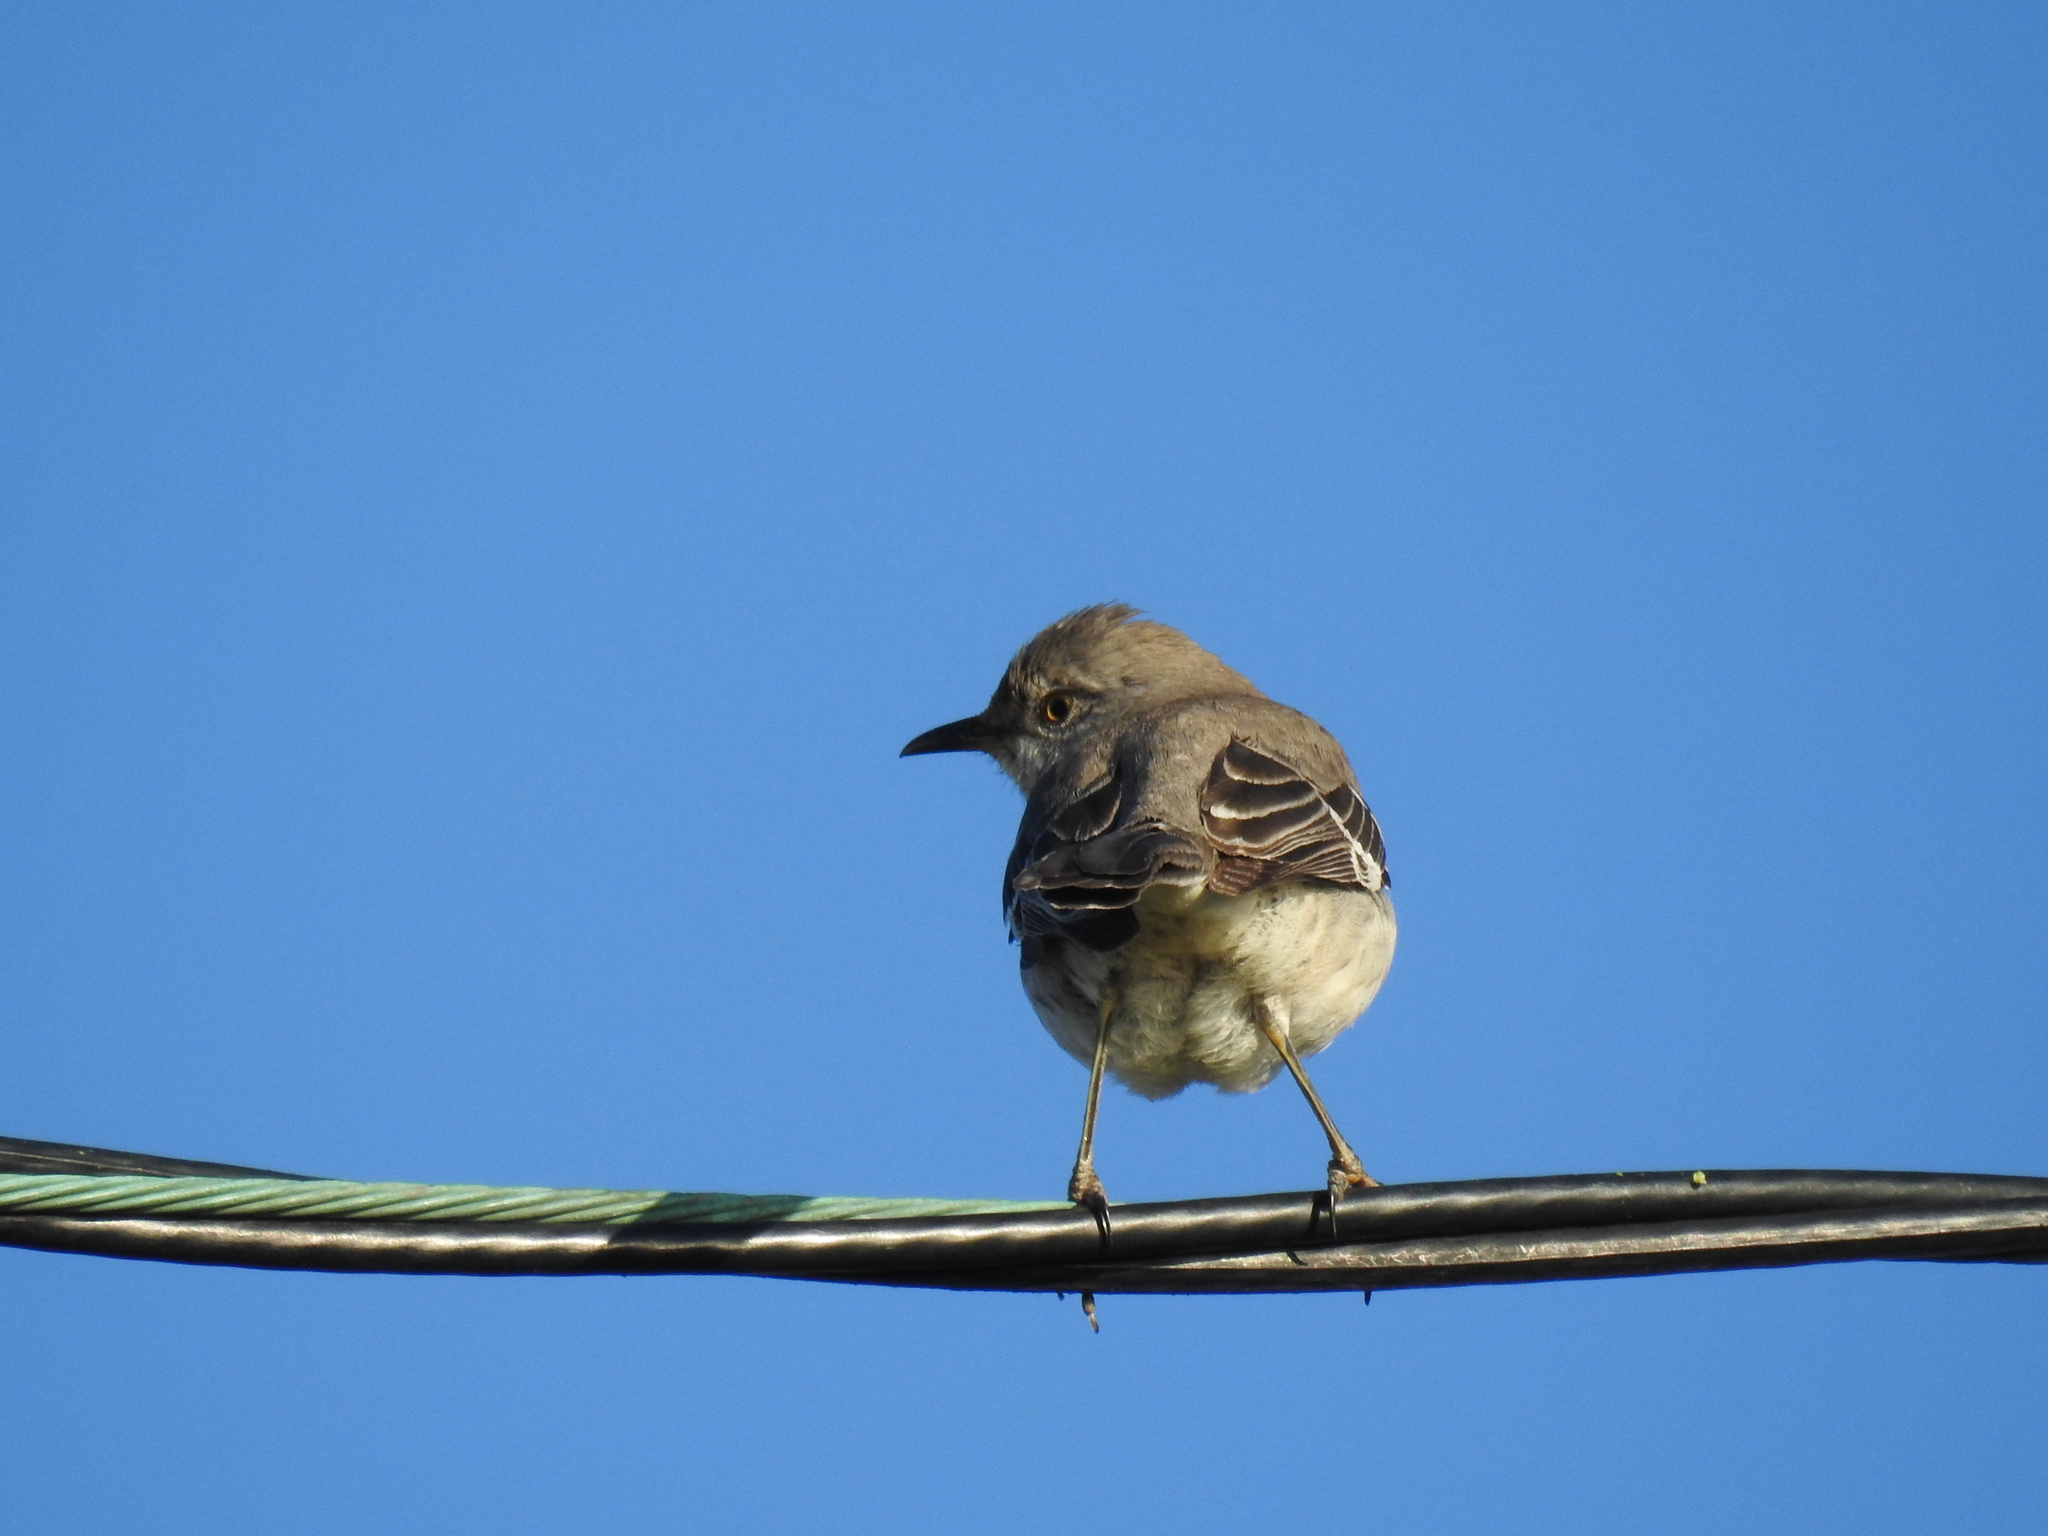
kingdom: Animalia
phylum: Chordata
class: Aves
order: Passeriformes
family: Mimidae
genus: Mimus
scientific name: Mimus polyglottos
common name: Northern mockingbird
